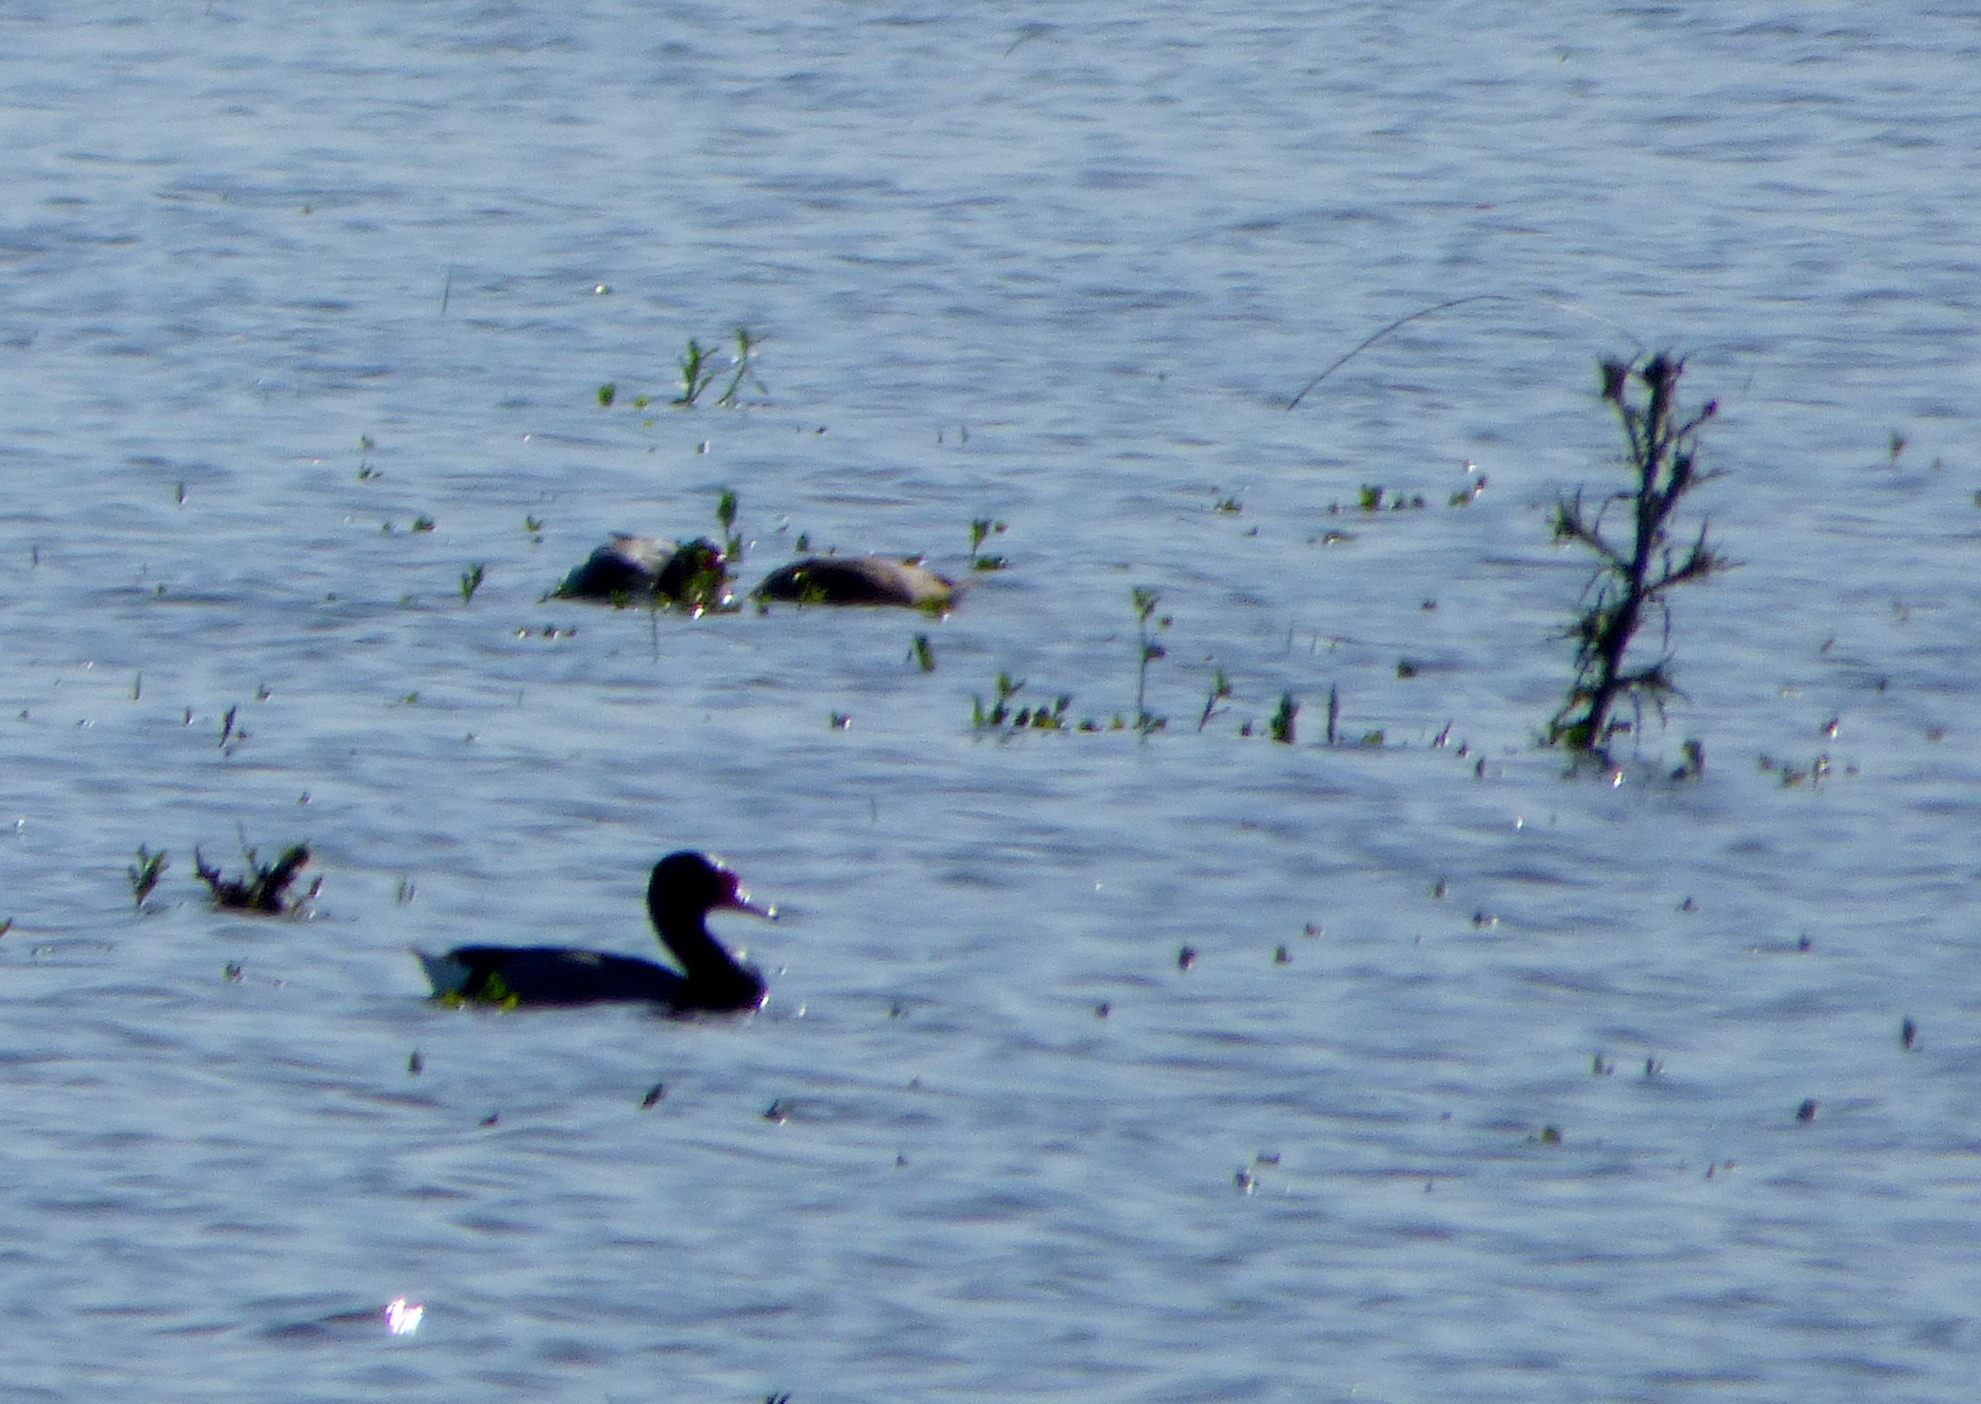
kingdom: Animalia
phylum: Chordata
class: Aves
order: Anseriformes
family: Anatidae
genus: Netta
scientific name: Netta peposaca
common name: Rosy-billed pochard
